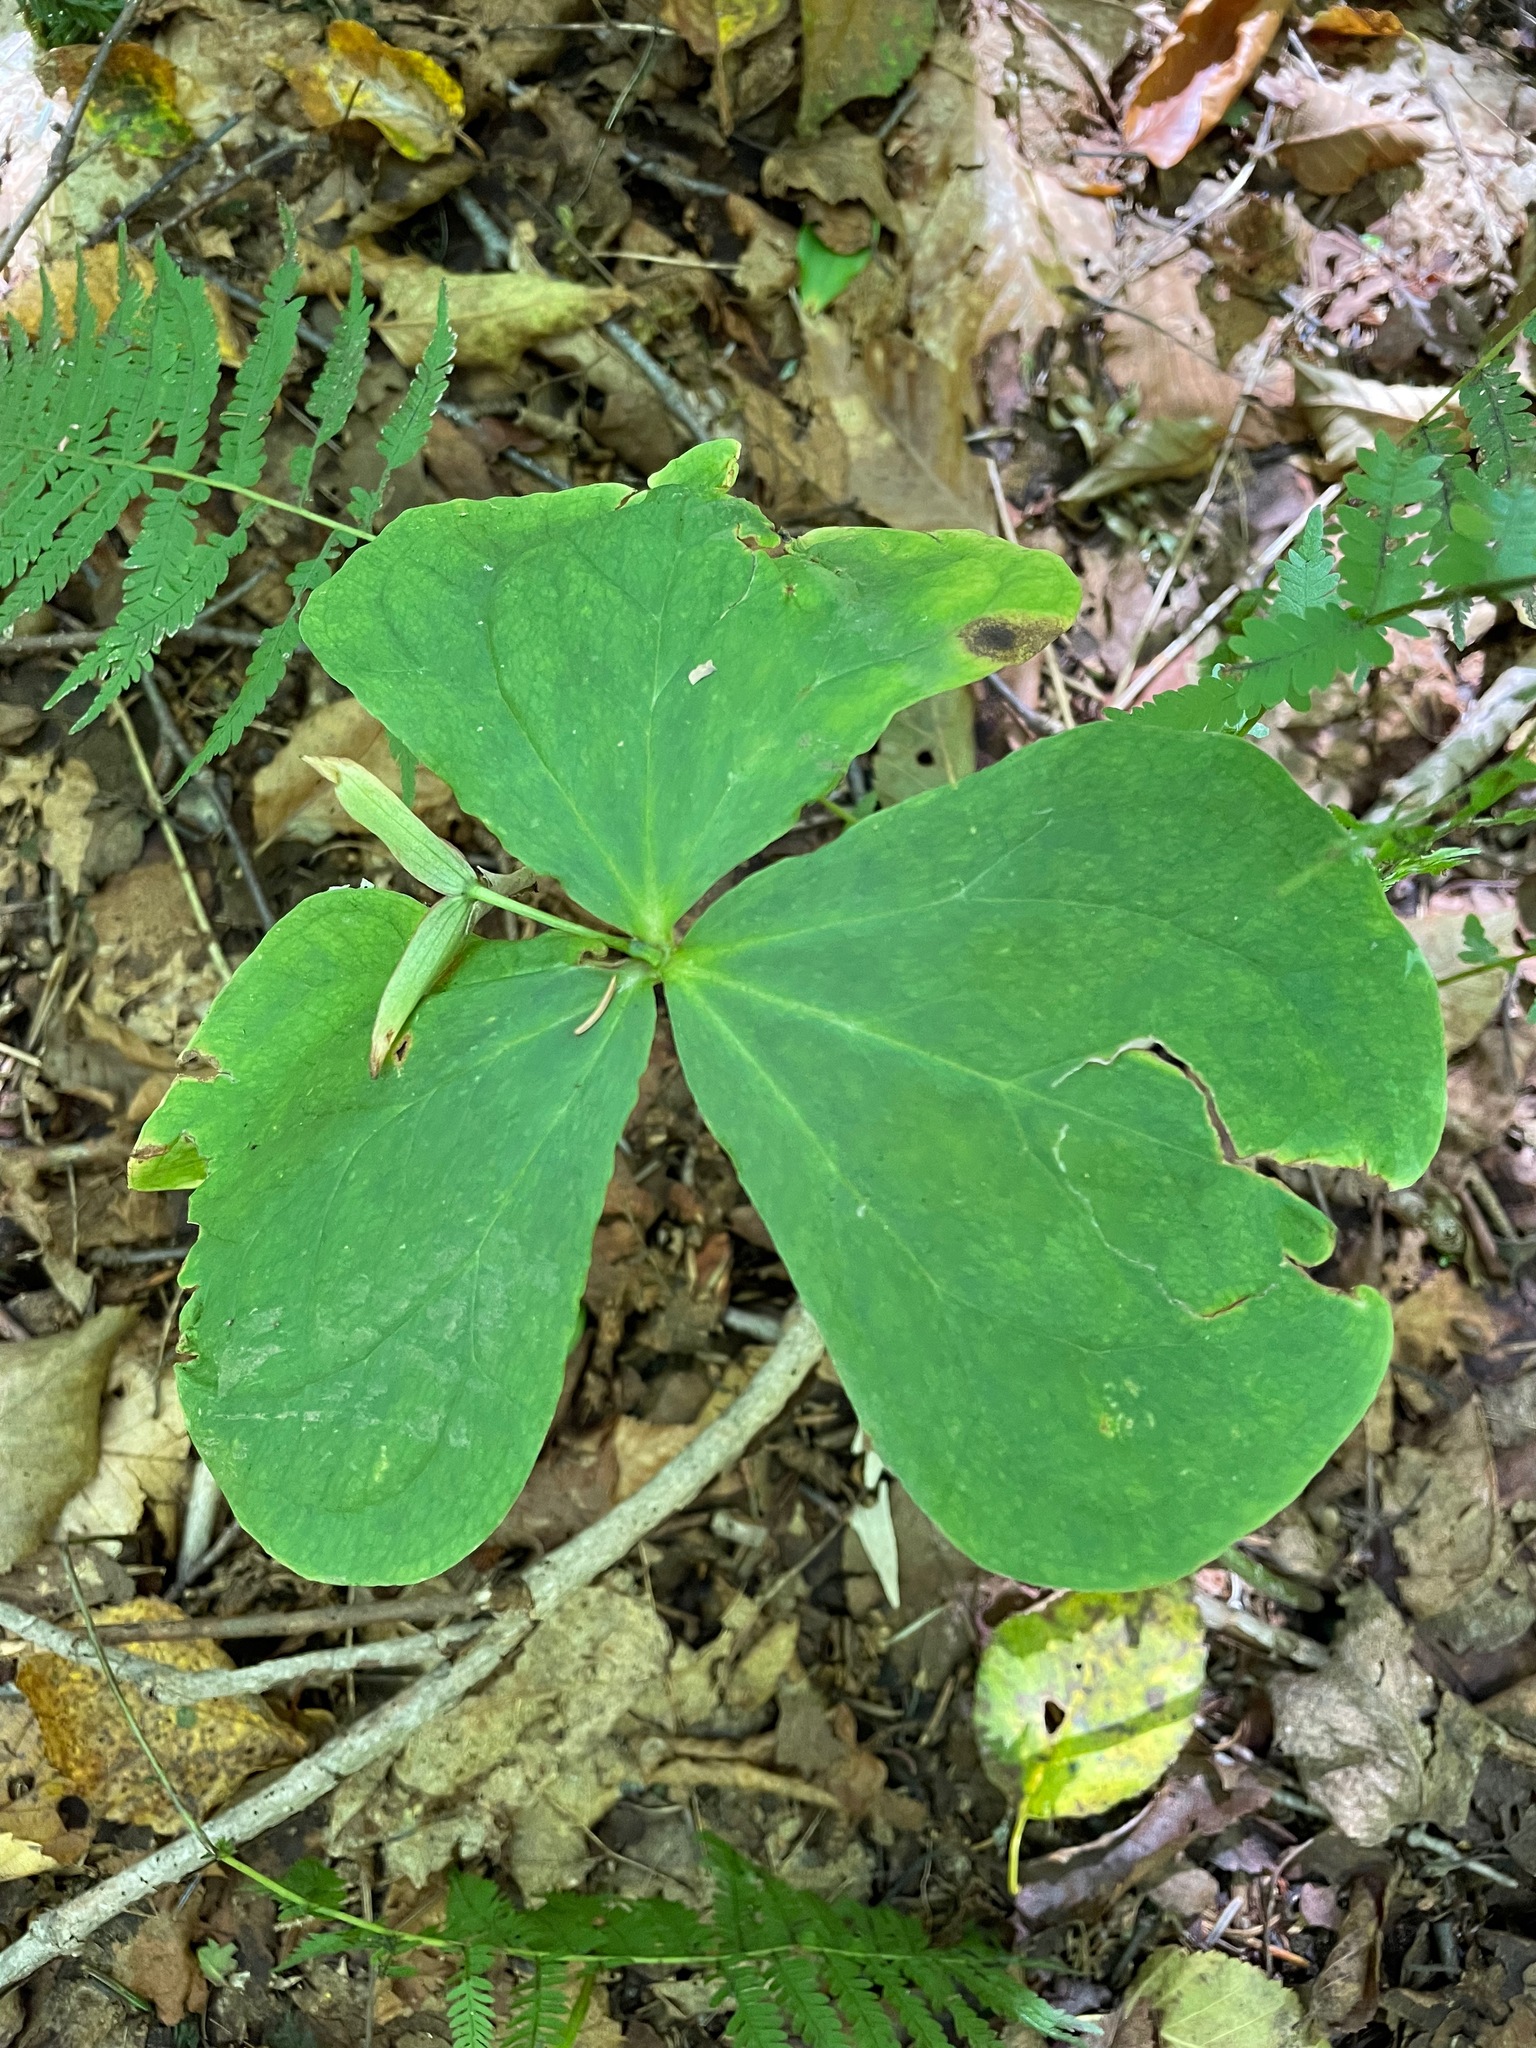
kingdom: Plantae
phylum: Tracheophyta
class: Liliopsida
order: Liliales
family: Melanthiaceae
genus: Trillium
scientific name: Trillium erectum
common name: Purple trillium
